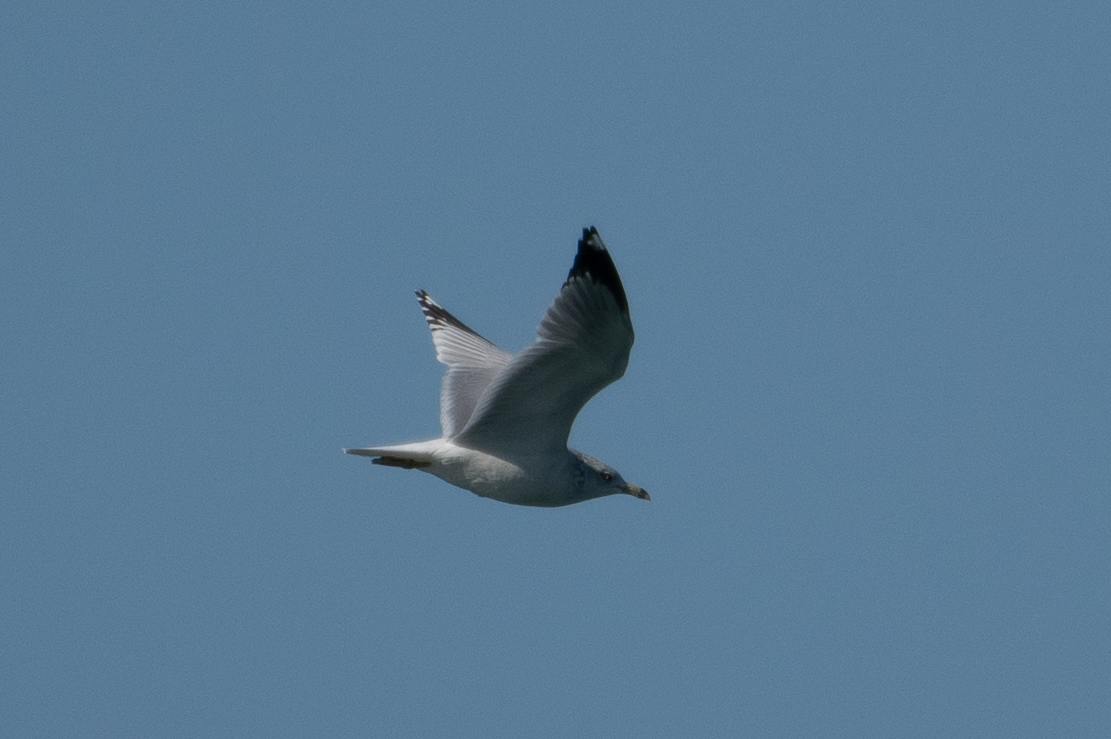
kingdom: Animalia
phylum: Chordata
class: Aves
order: Charadriiformes
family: Laridae
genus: Larus
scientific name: Larus delawarensis
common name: Ring-billed gull
